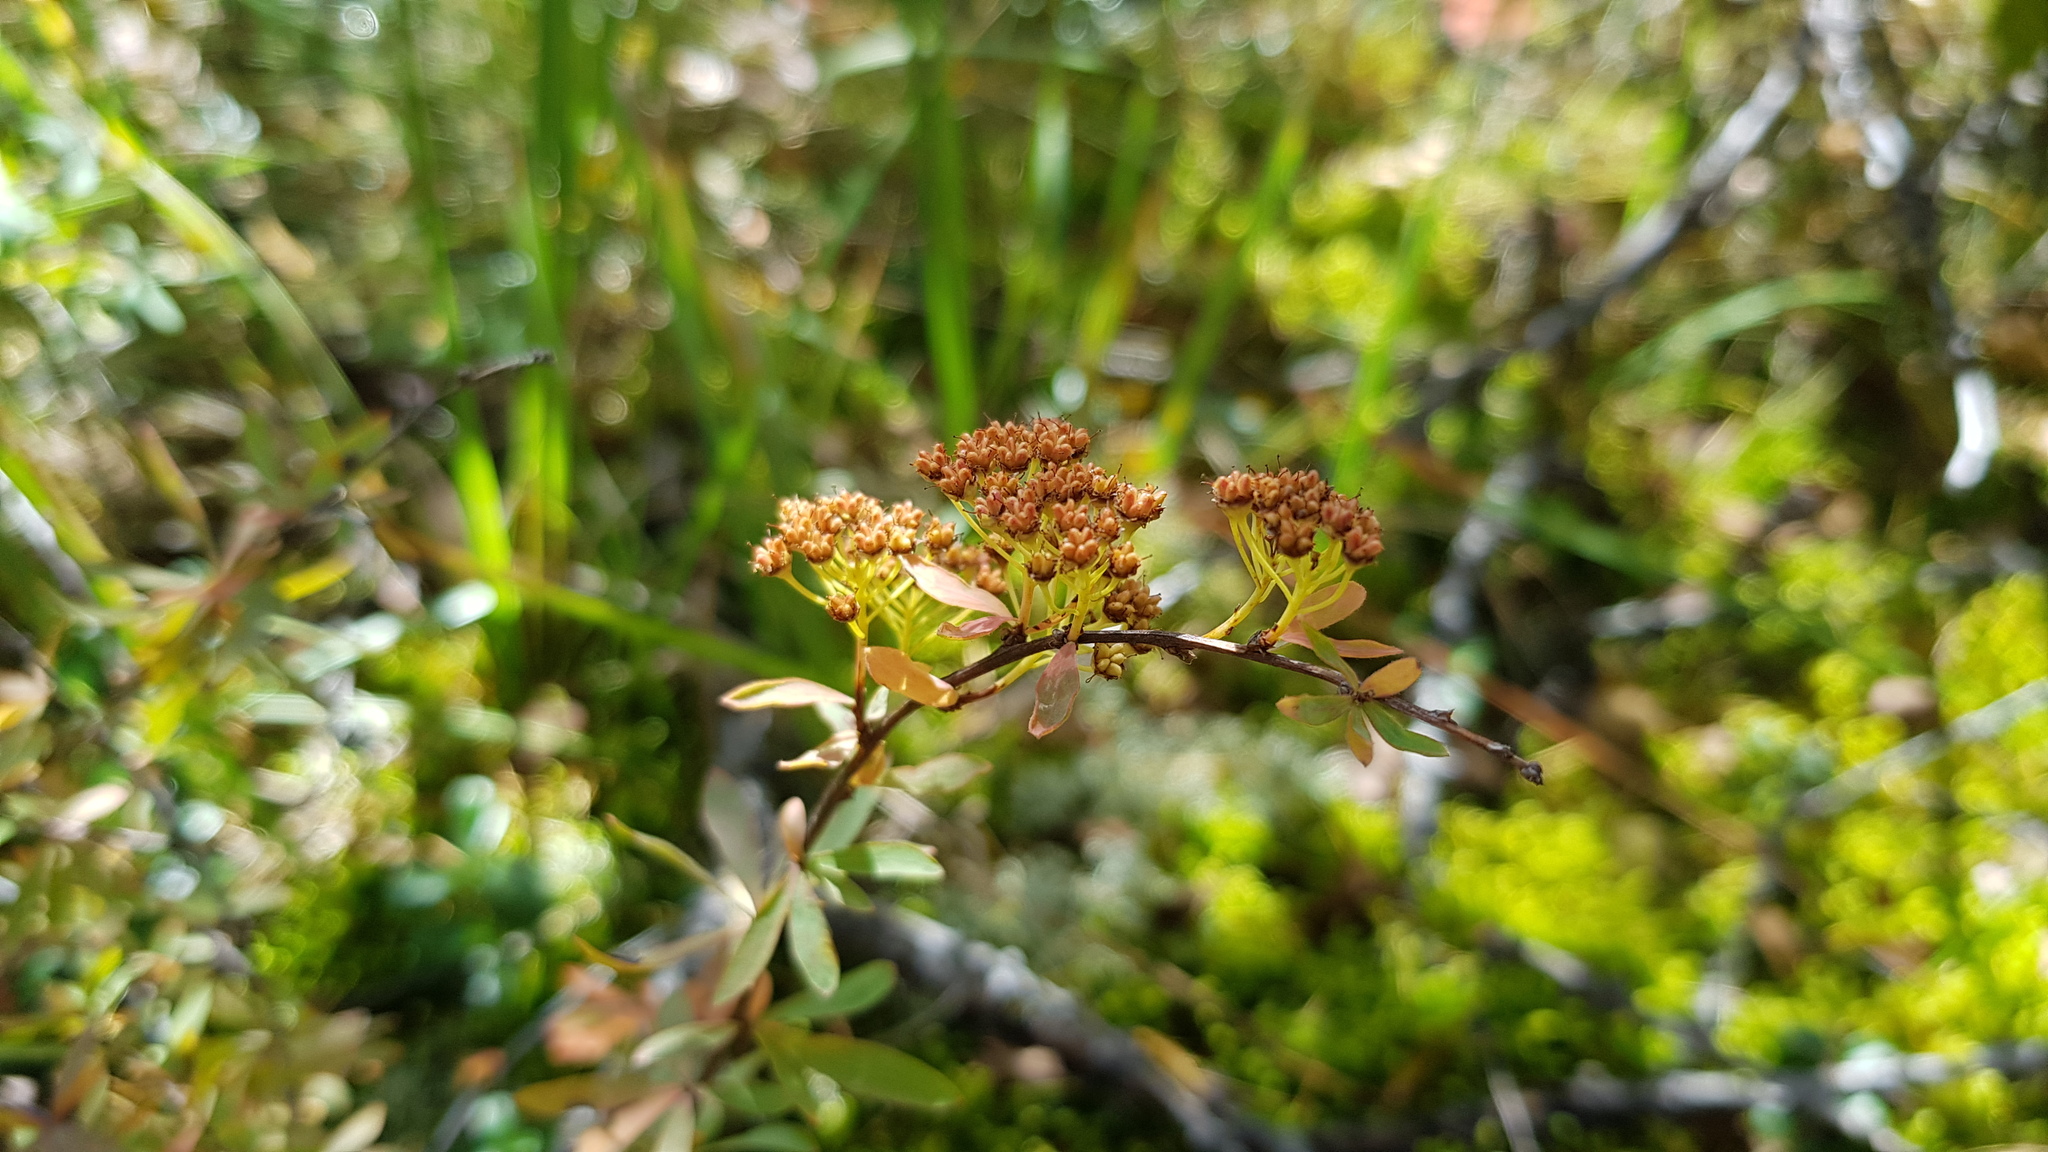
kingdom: Plantae
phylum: Tracheophyta
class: Magnoliopsida
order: Rosales
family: Rosaceae
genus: Spiraea
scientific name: Spiraea alpina
